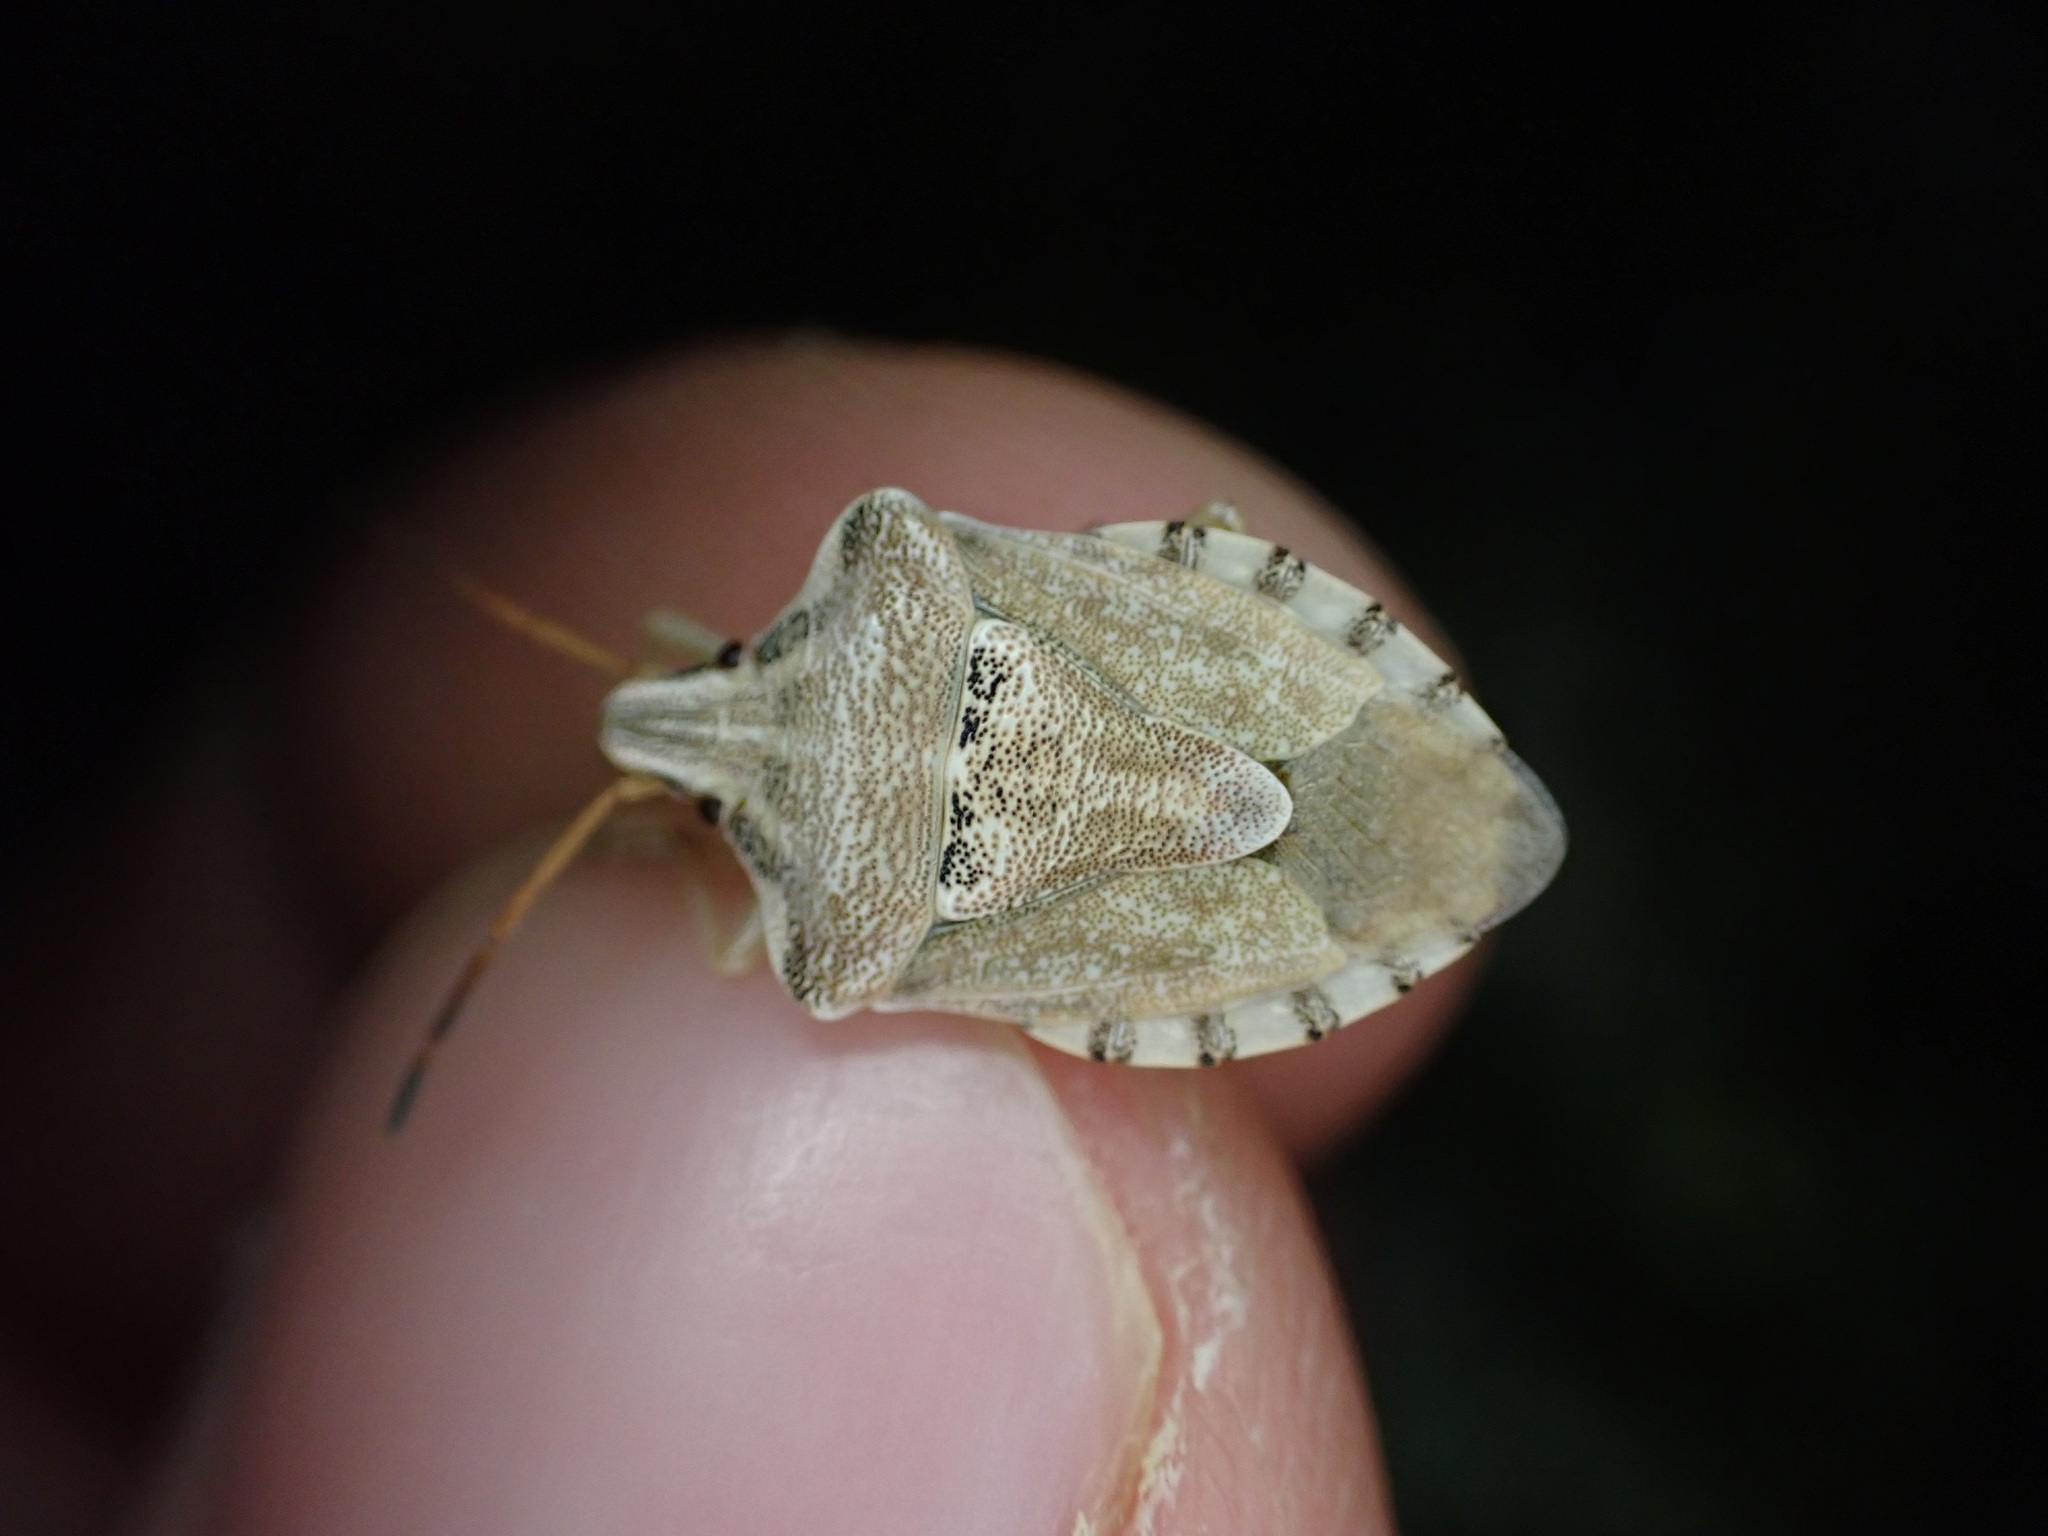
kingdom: Animalia
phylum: Arthropoda
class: Insecta
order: Hemiptera
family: Miridae
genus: Orthops
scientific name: Orthops kalmii
